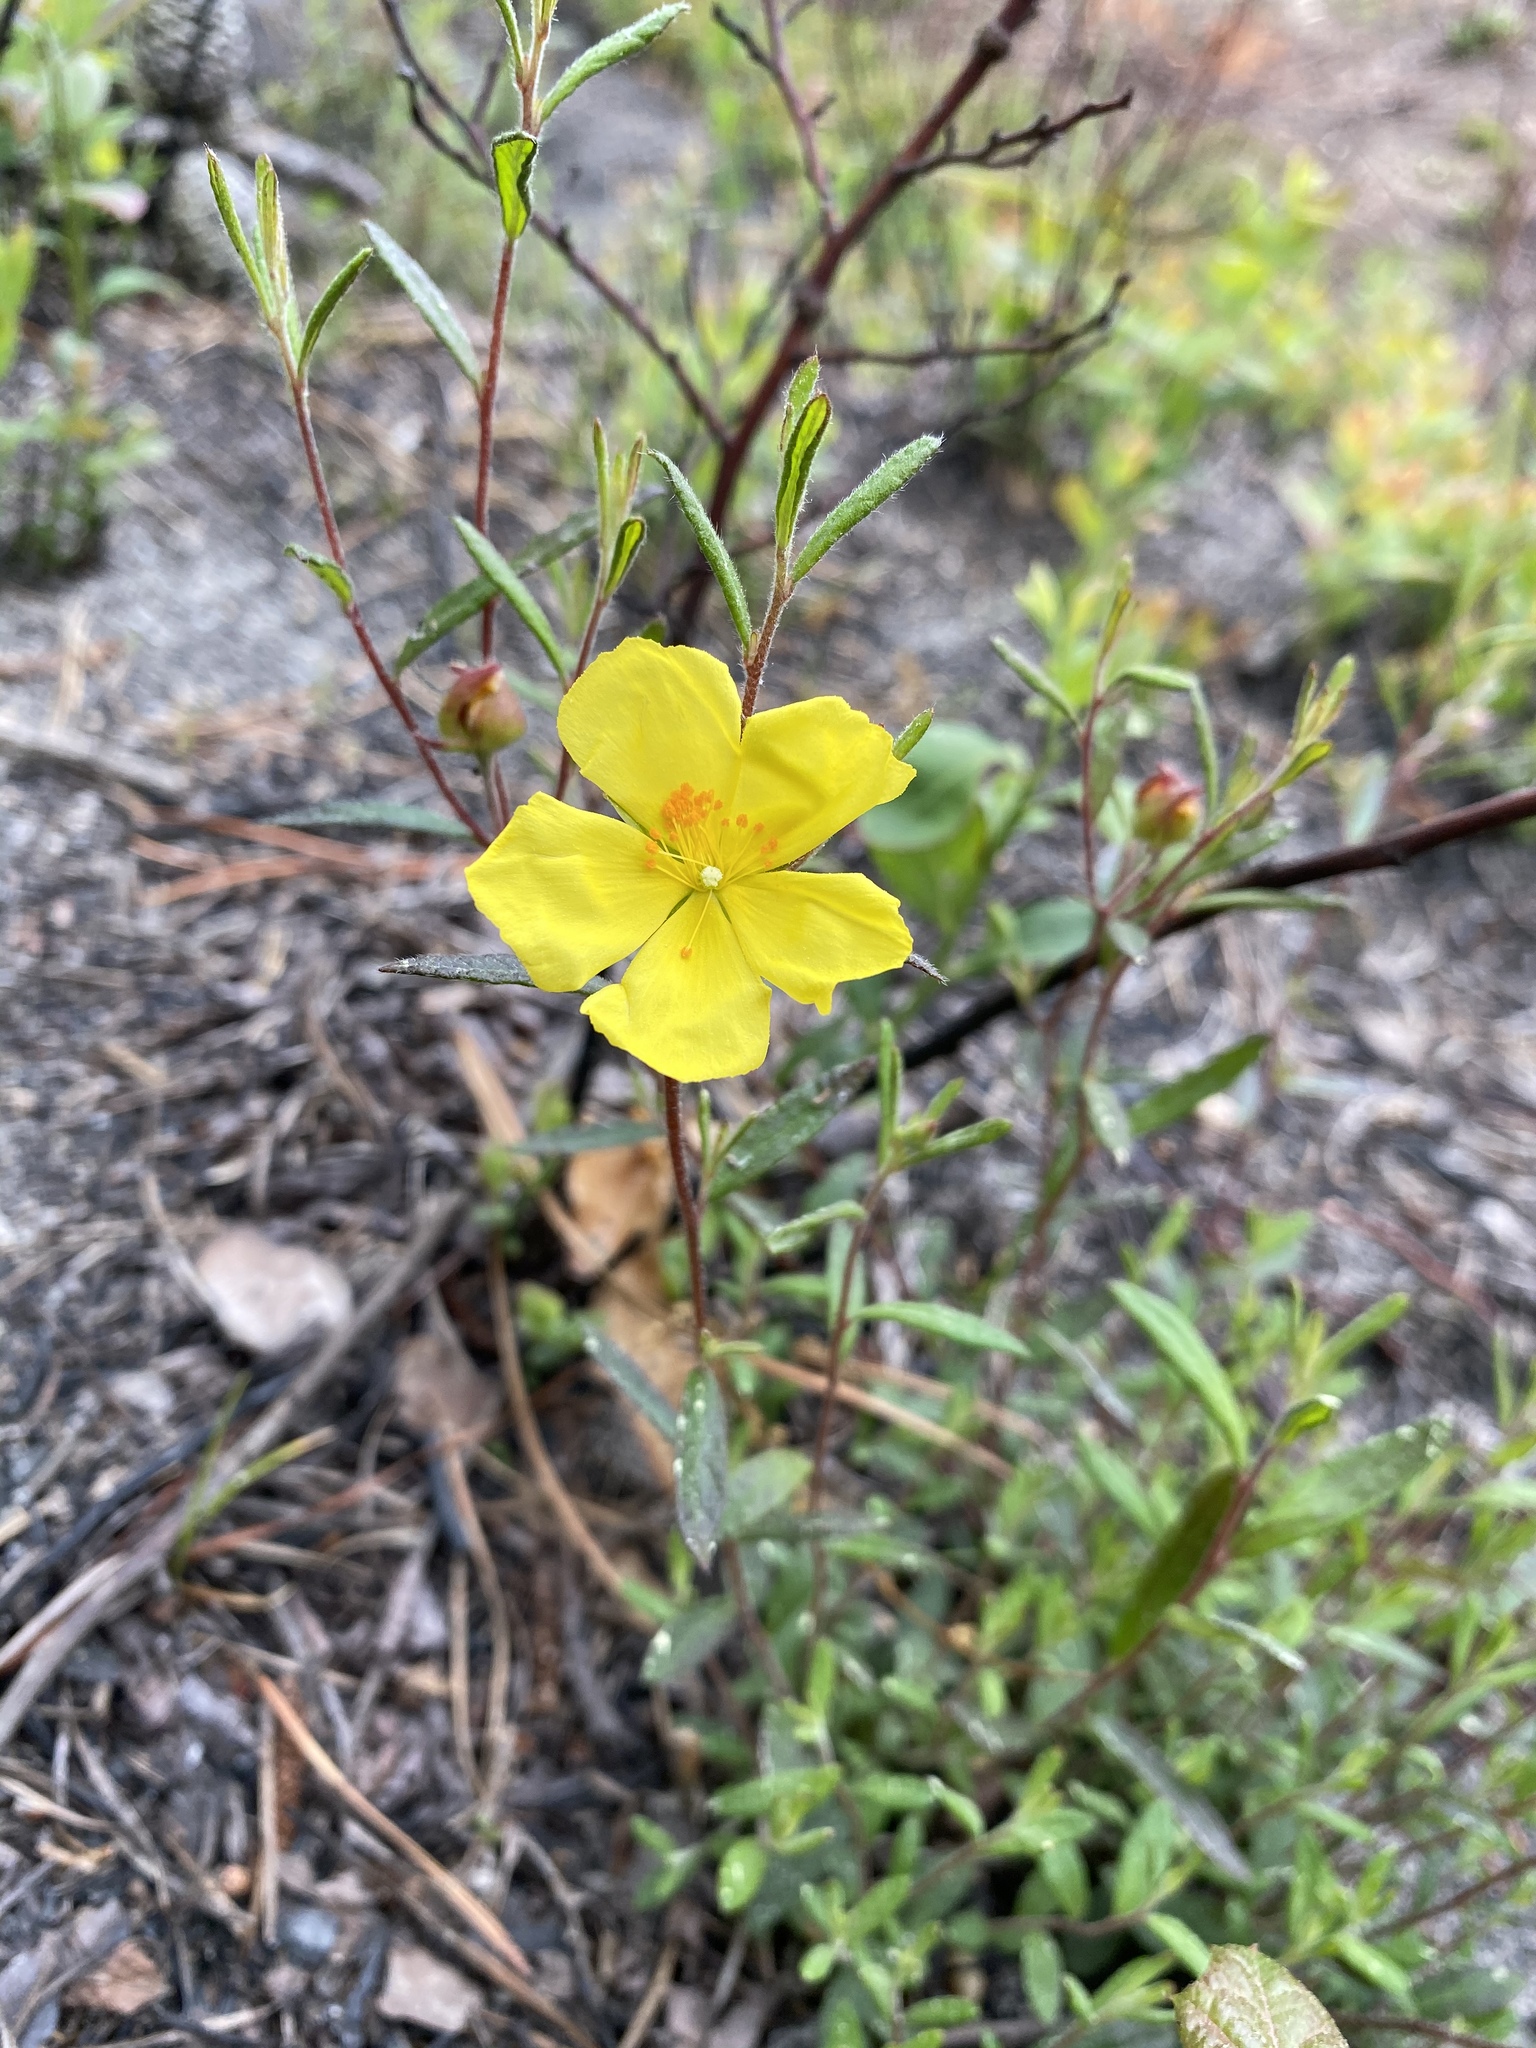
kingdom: Plantae
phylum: Tracheophyta
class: Magnoliopsida
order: Malvales
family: Cistaceae
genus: Crocanthemum
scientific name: Crocanthemum canadense
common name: Canada frostweed
